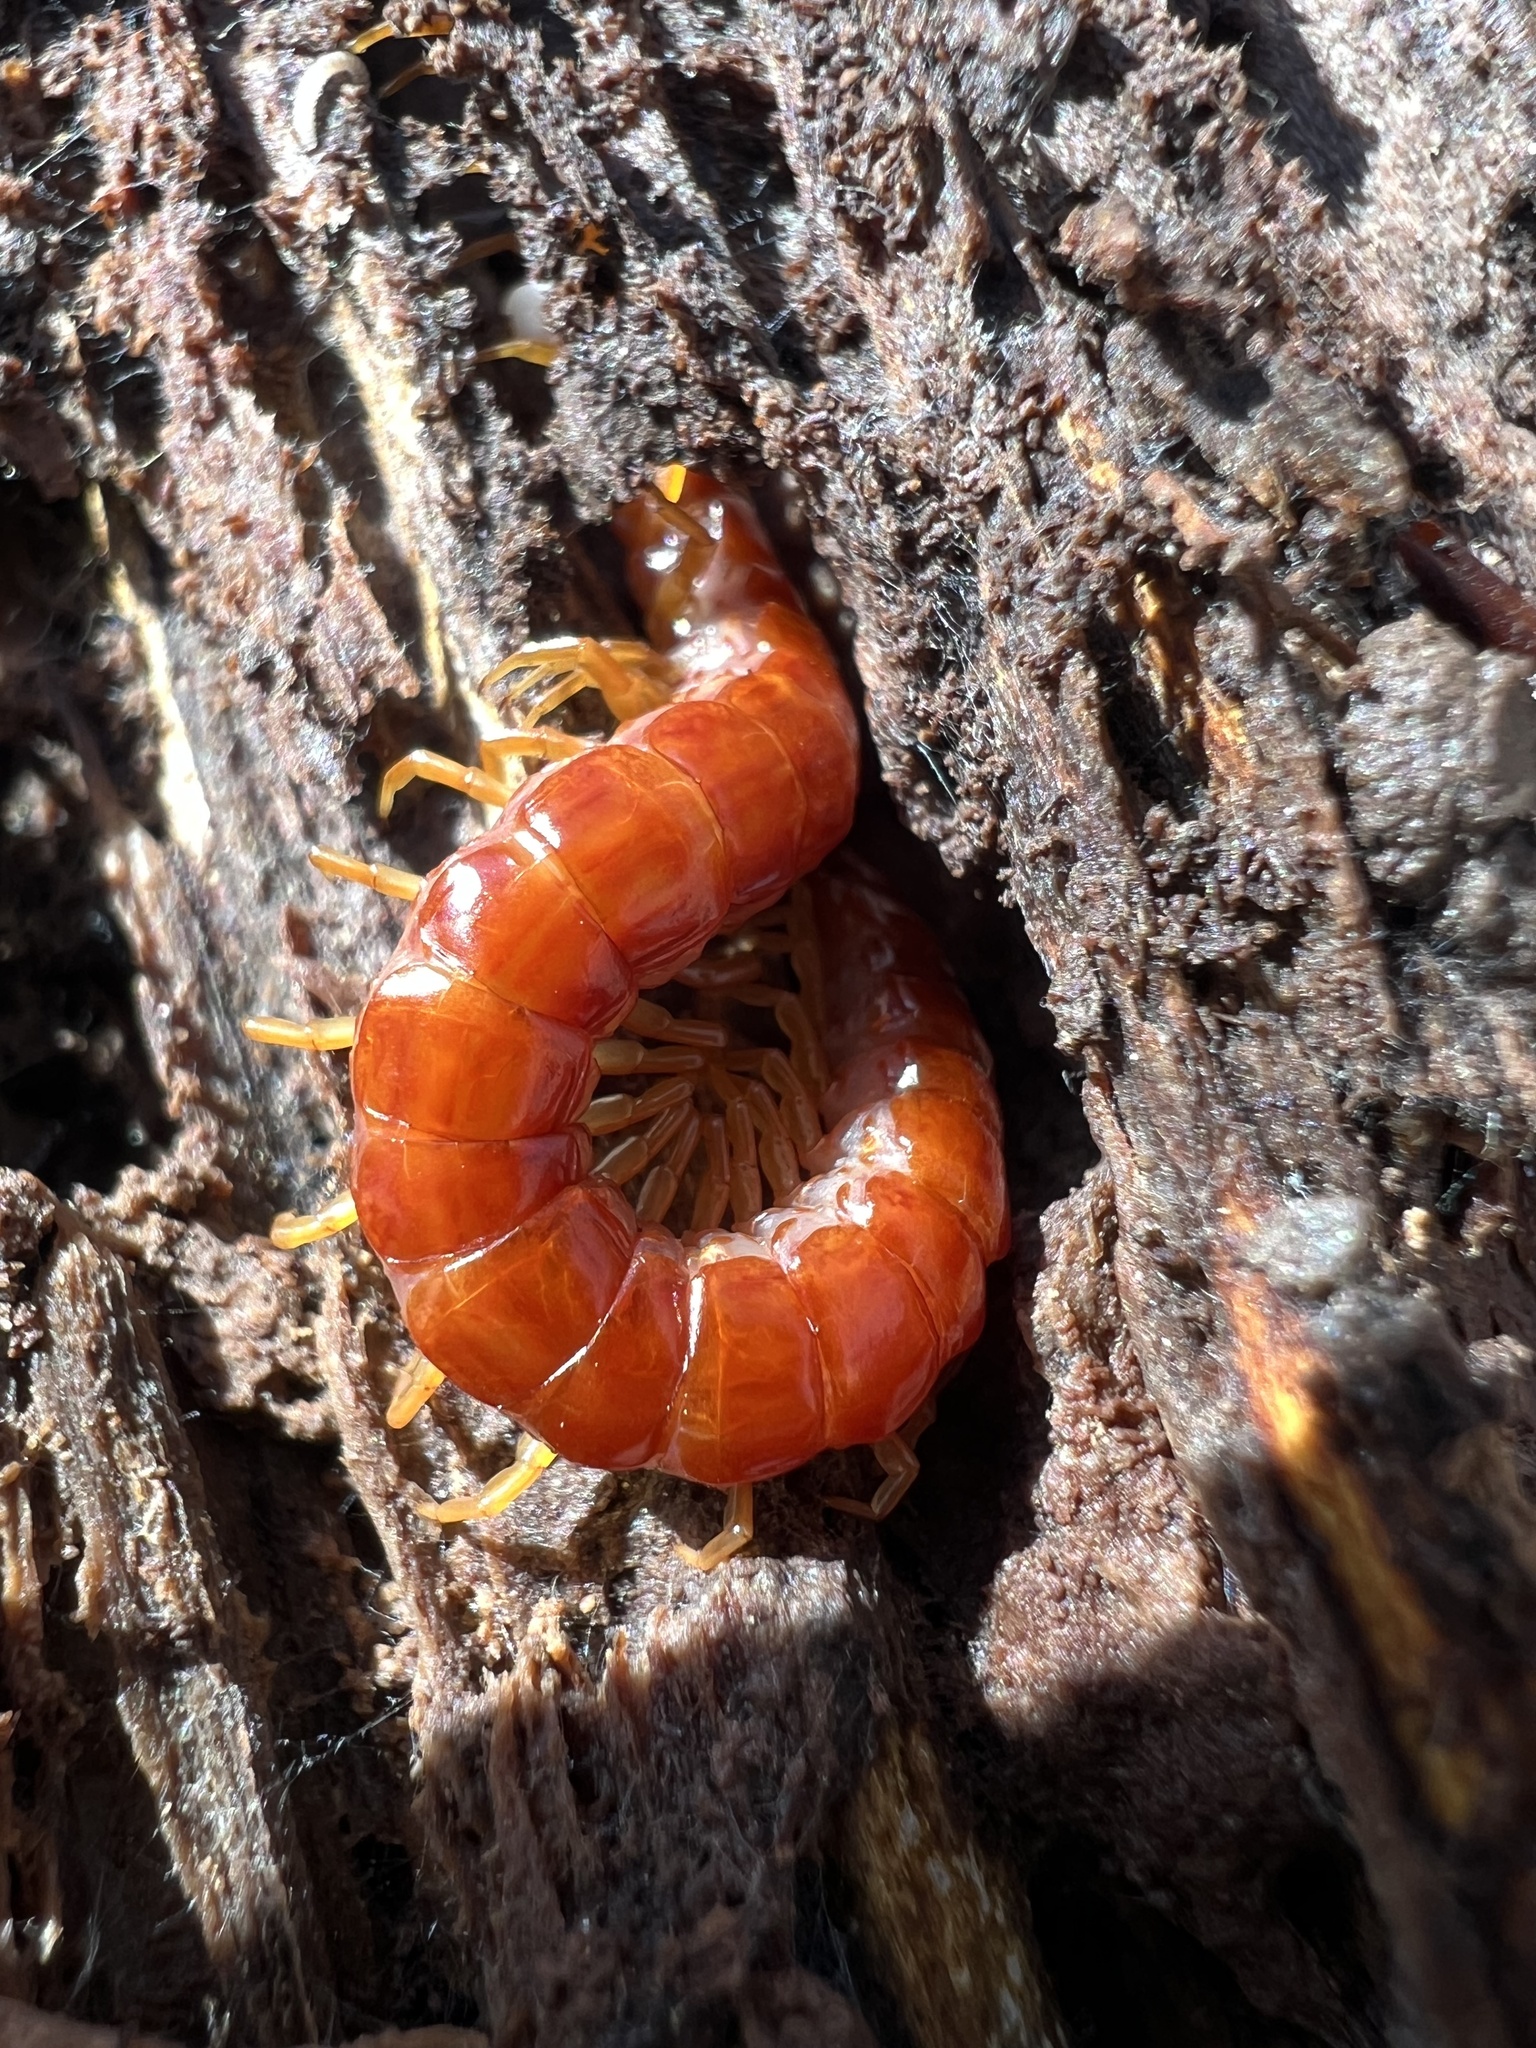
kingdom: Animalia
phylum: Arthropoda
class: Chilopoda
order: Scolopendromorpha
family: Scolopocryptopidae
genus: Scolopocryptops
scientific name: Scolopocryptops sexspinosus
